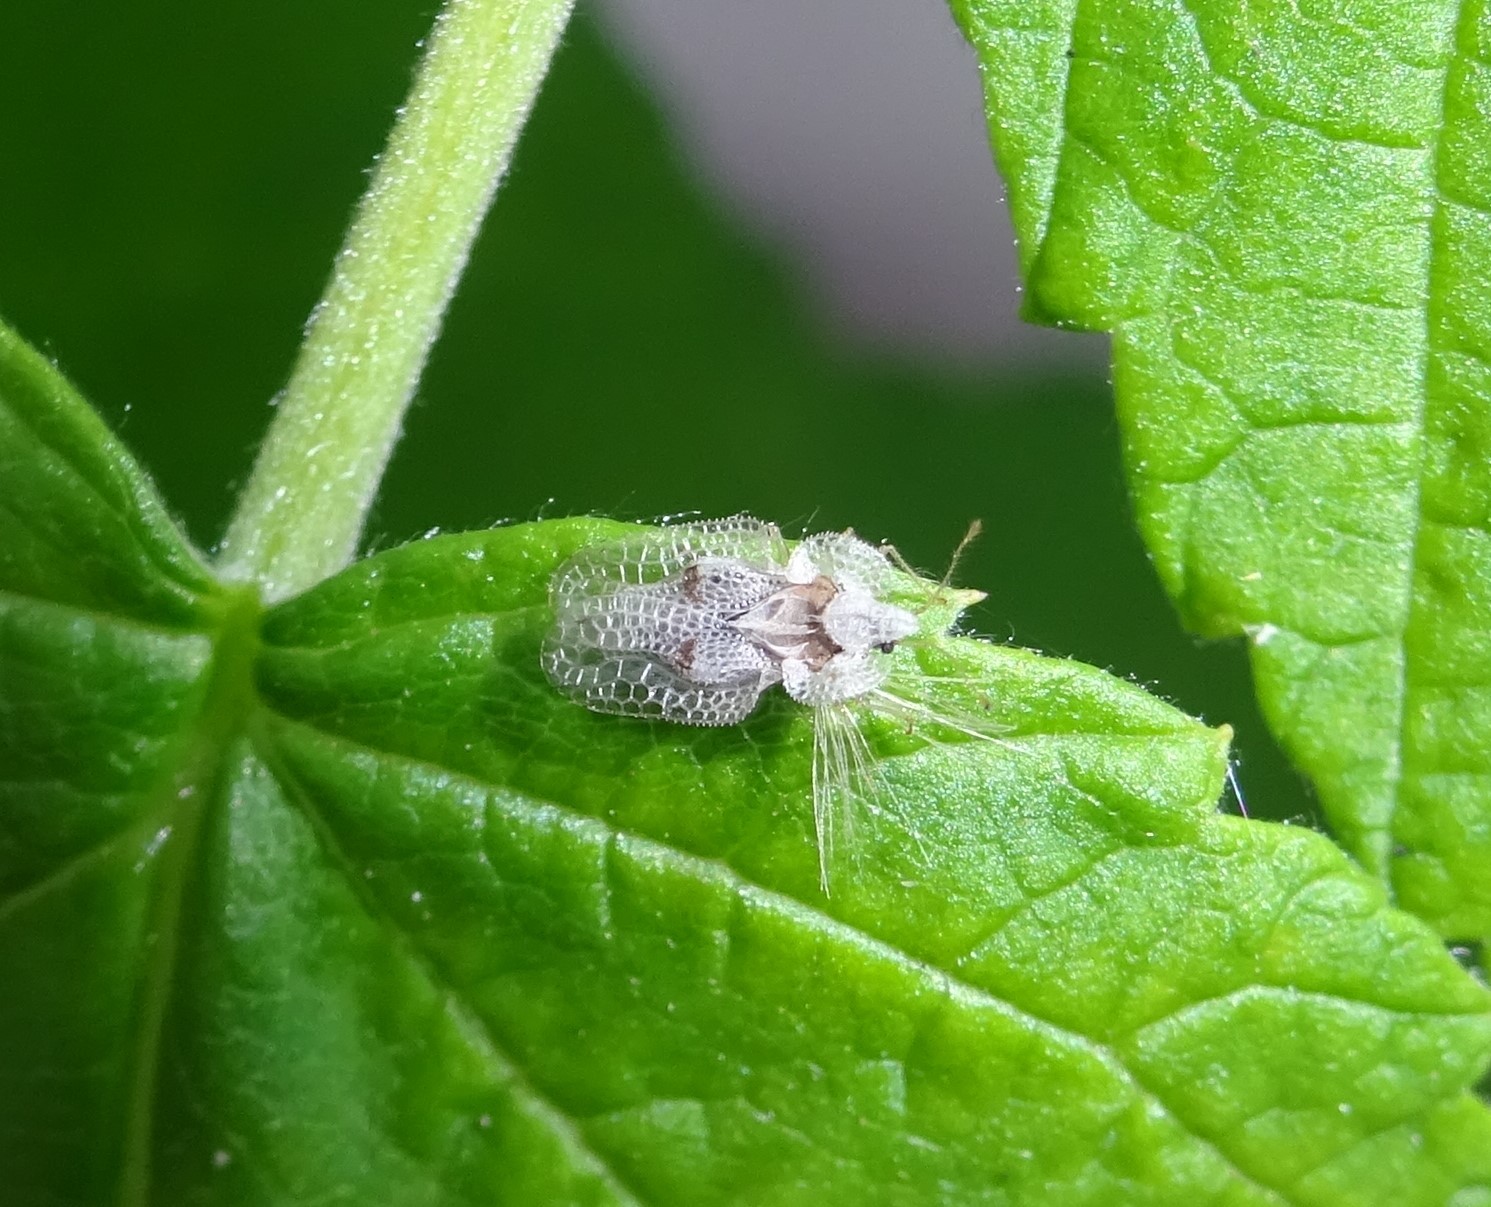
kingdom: Animalia
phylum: Arthropoda
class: Insecta
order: Hemiptera
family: Tingidae
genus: Corythucha
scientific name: Corythucha ciliata
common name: Sycamore lace bug
